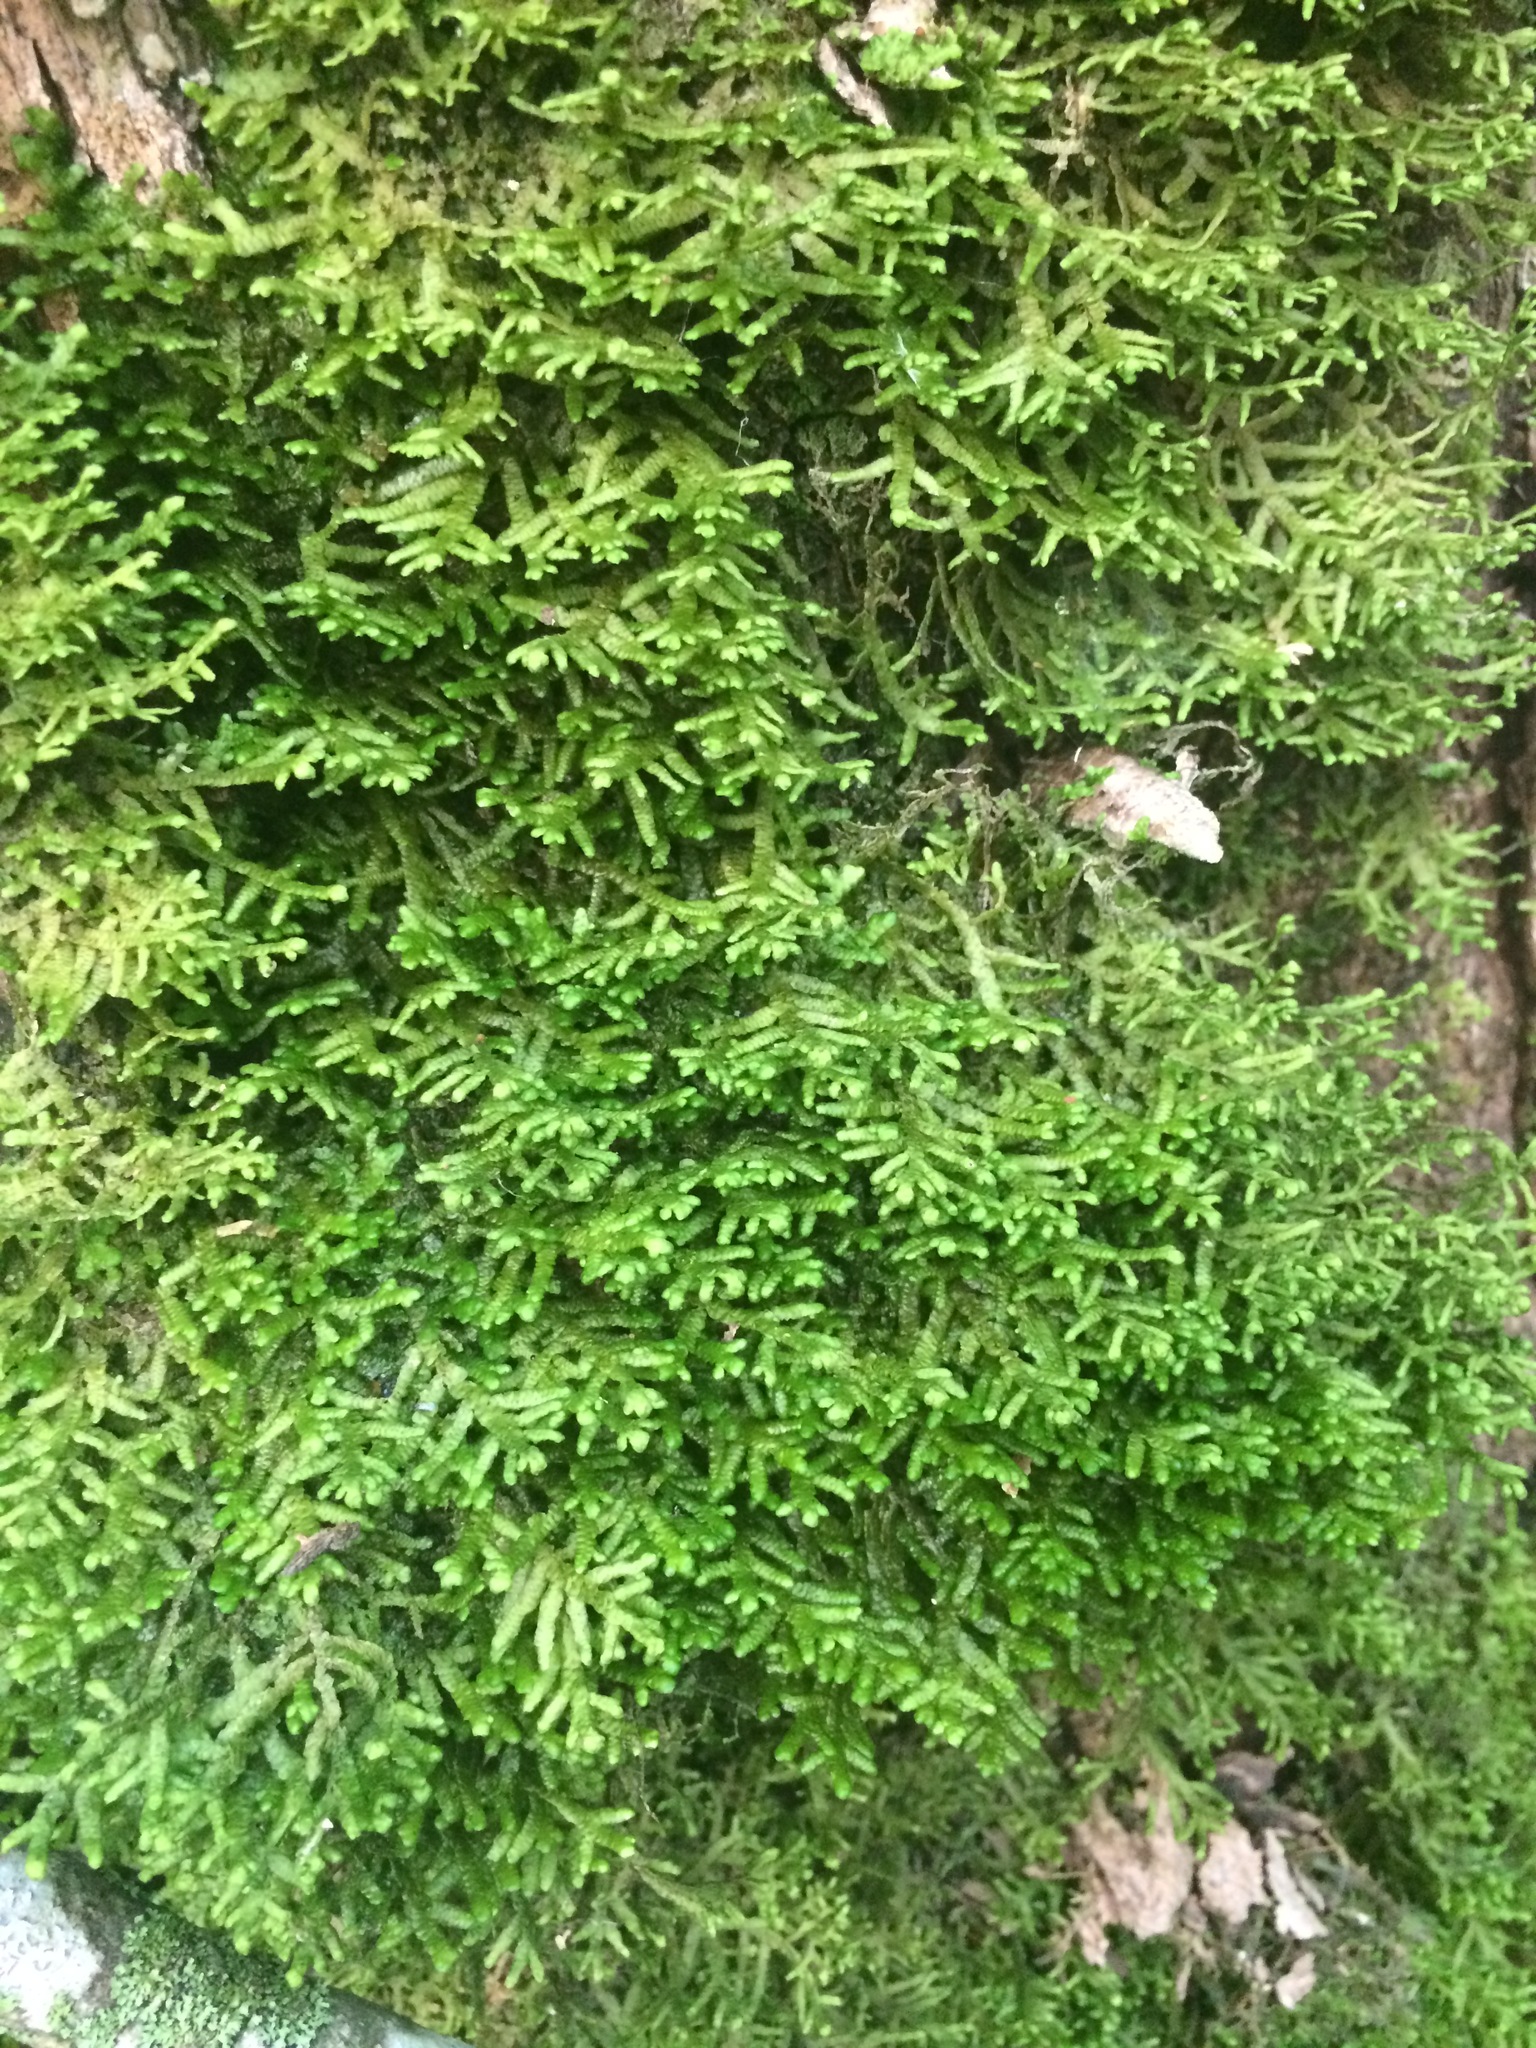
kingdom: Plantae
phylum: Marchantiophyta
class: Jungermanniopsida
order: Porellales
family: Porellaceae
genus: Porella
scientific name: Porella platyphylla
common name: Wall scalewort
